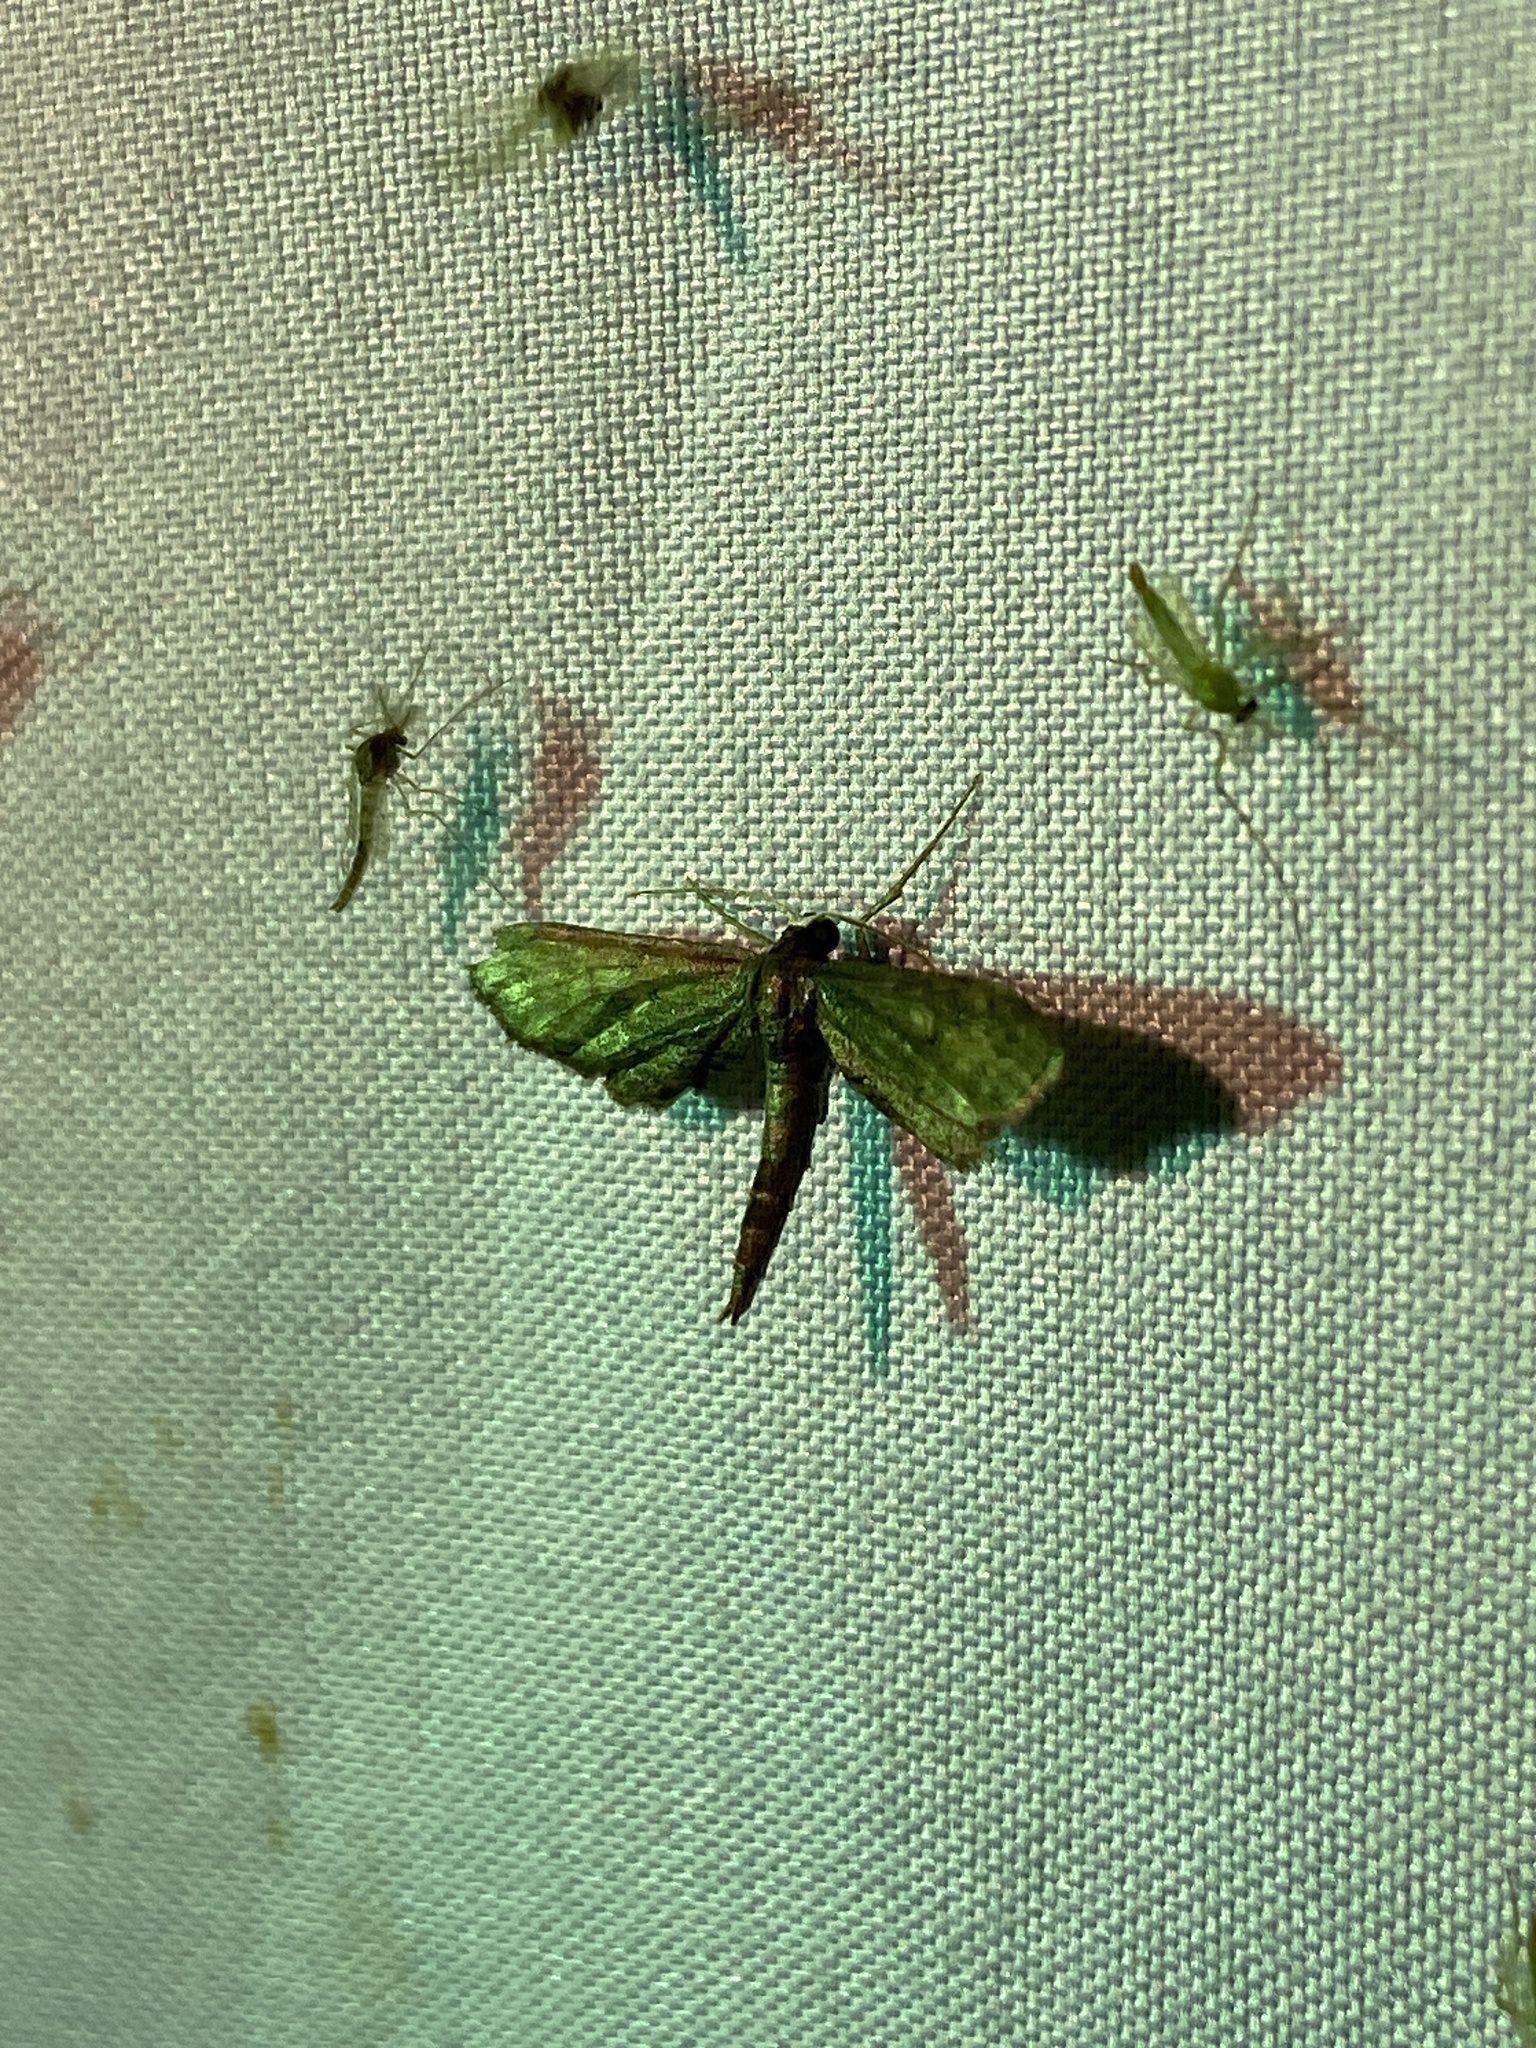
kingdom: Animalia
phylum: Arthropoda
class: Insecta
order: Lepidoptera
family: Geometridae
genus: Protoproutia
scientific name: Protoproutia laredoata
